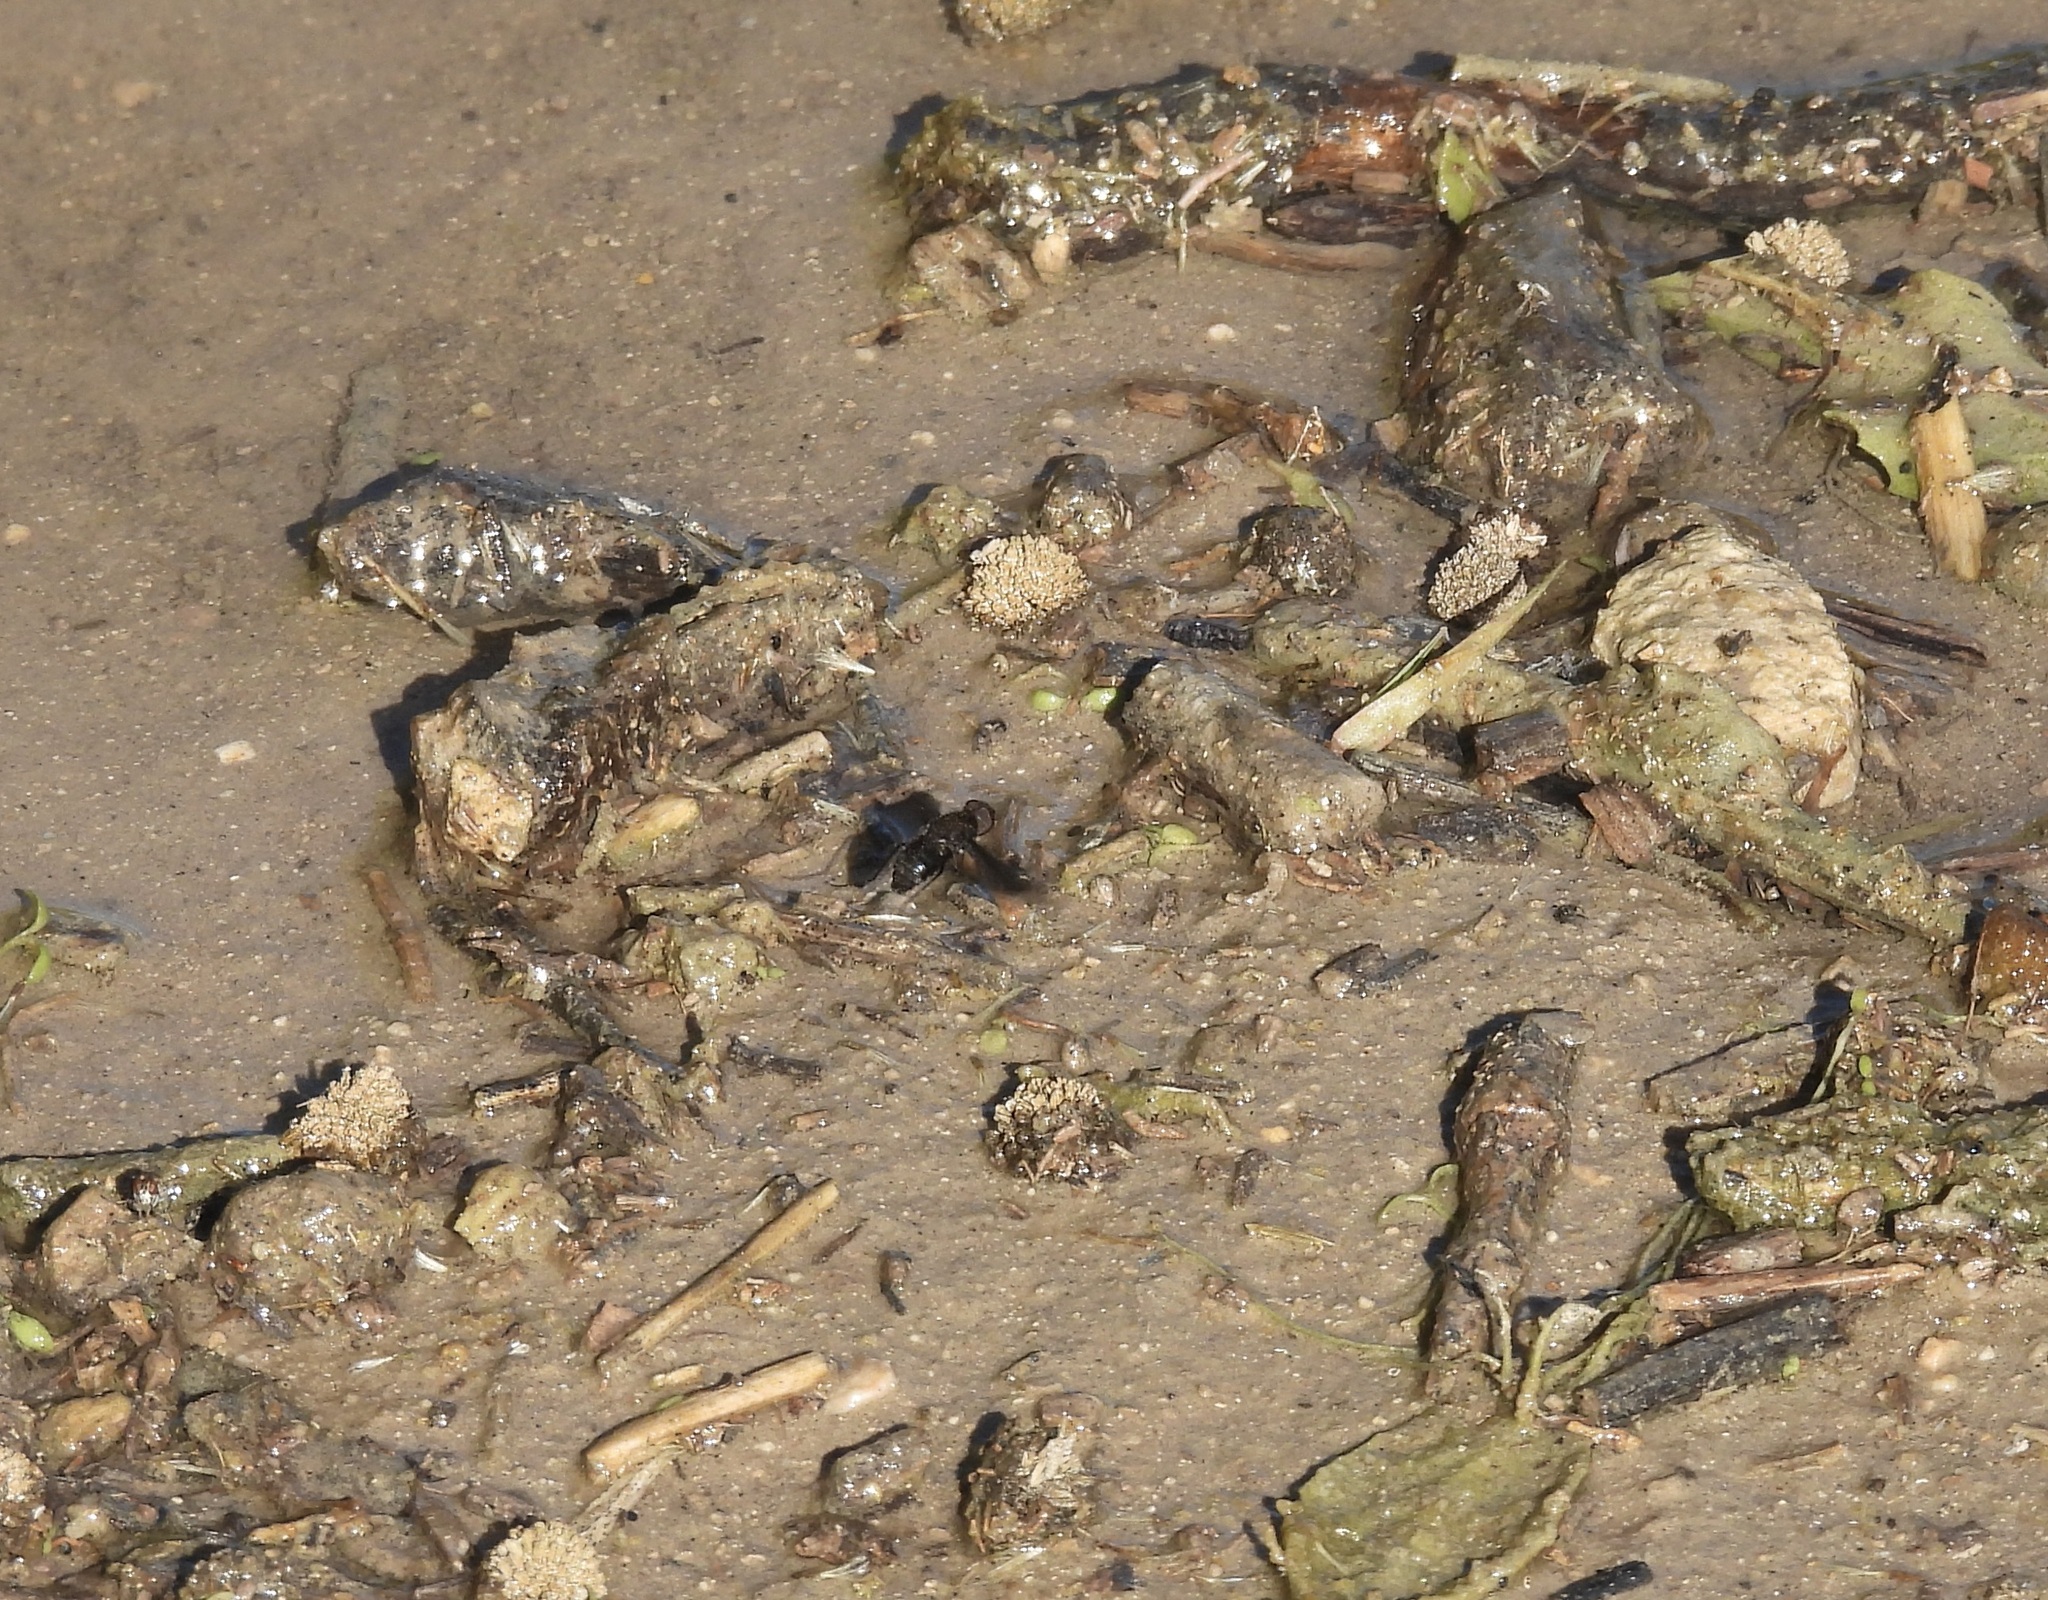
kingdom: Animalia
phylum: Arthropoda
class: Insecta
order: Diptera
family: Bombyliidae
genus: Anthrax
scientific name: Anthrax analis
